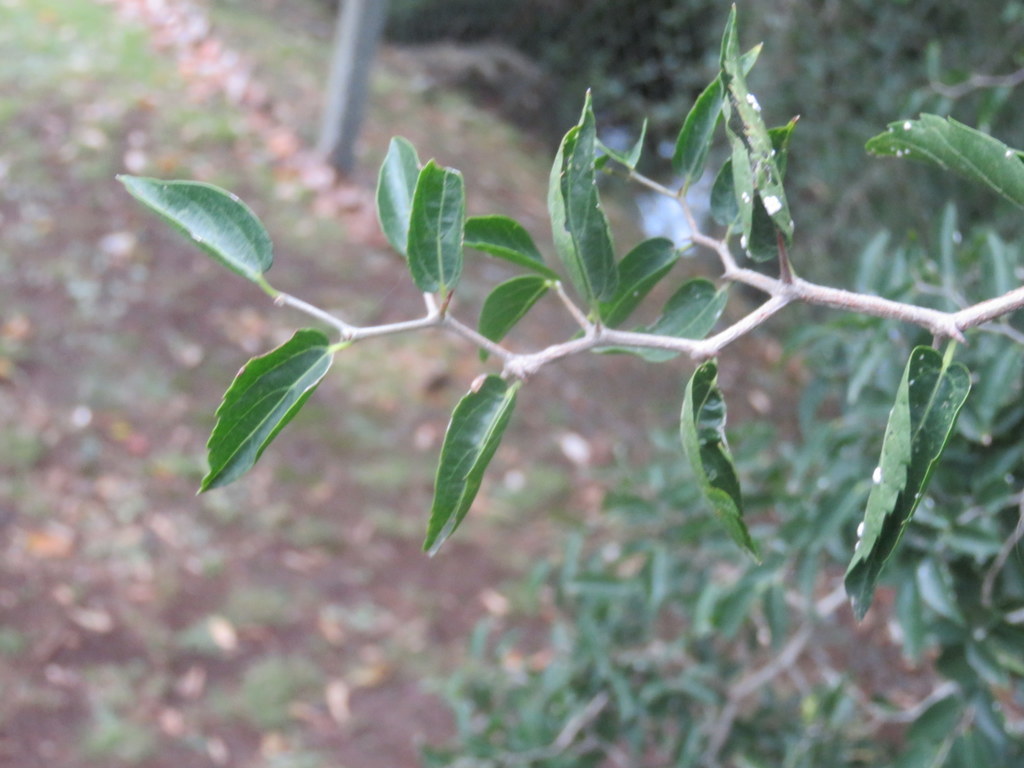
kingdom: Plantae
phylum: Tracheophyta
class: Magnoliopsida
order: Rosales
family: Cannabaceae
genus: Celtis
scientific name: Celtis tala
